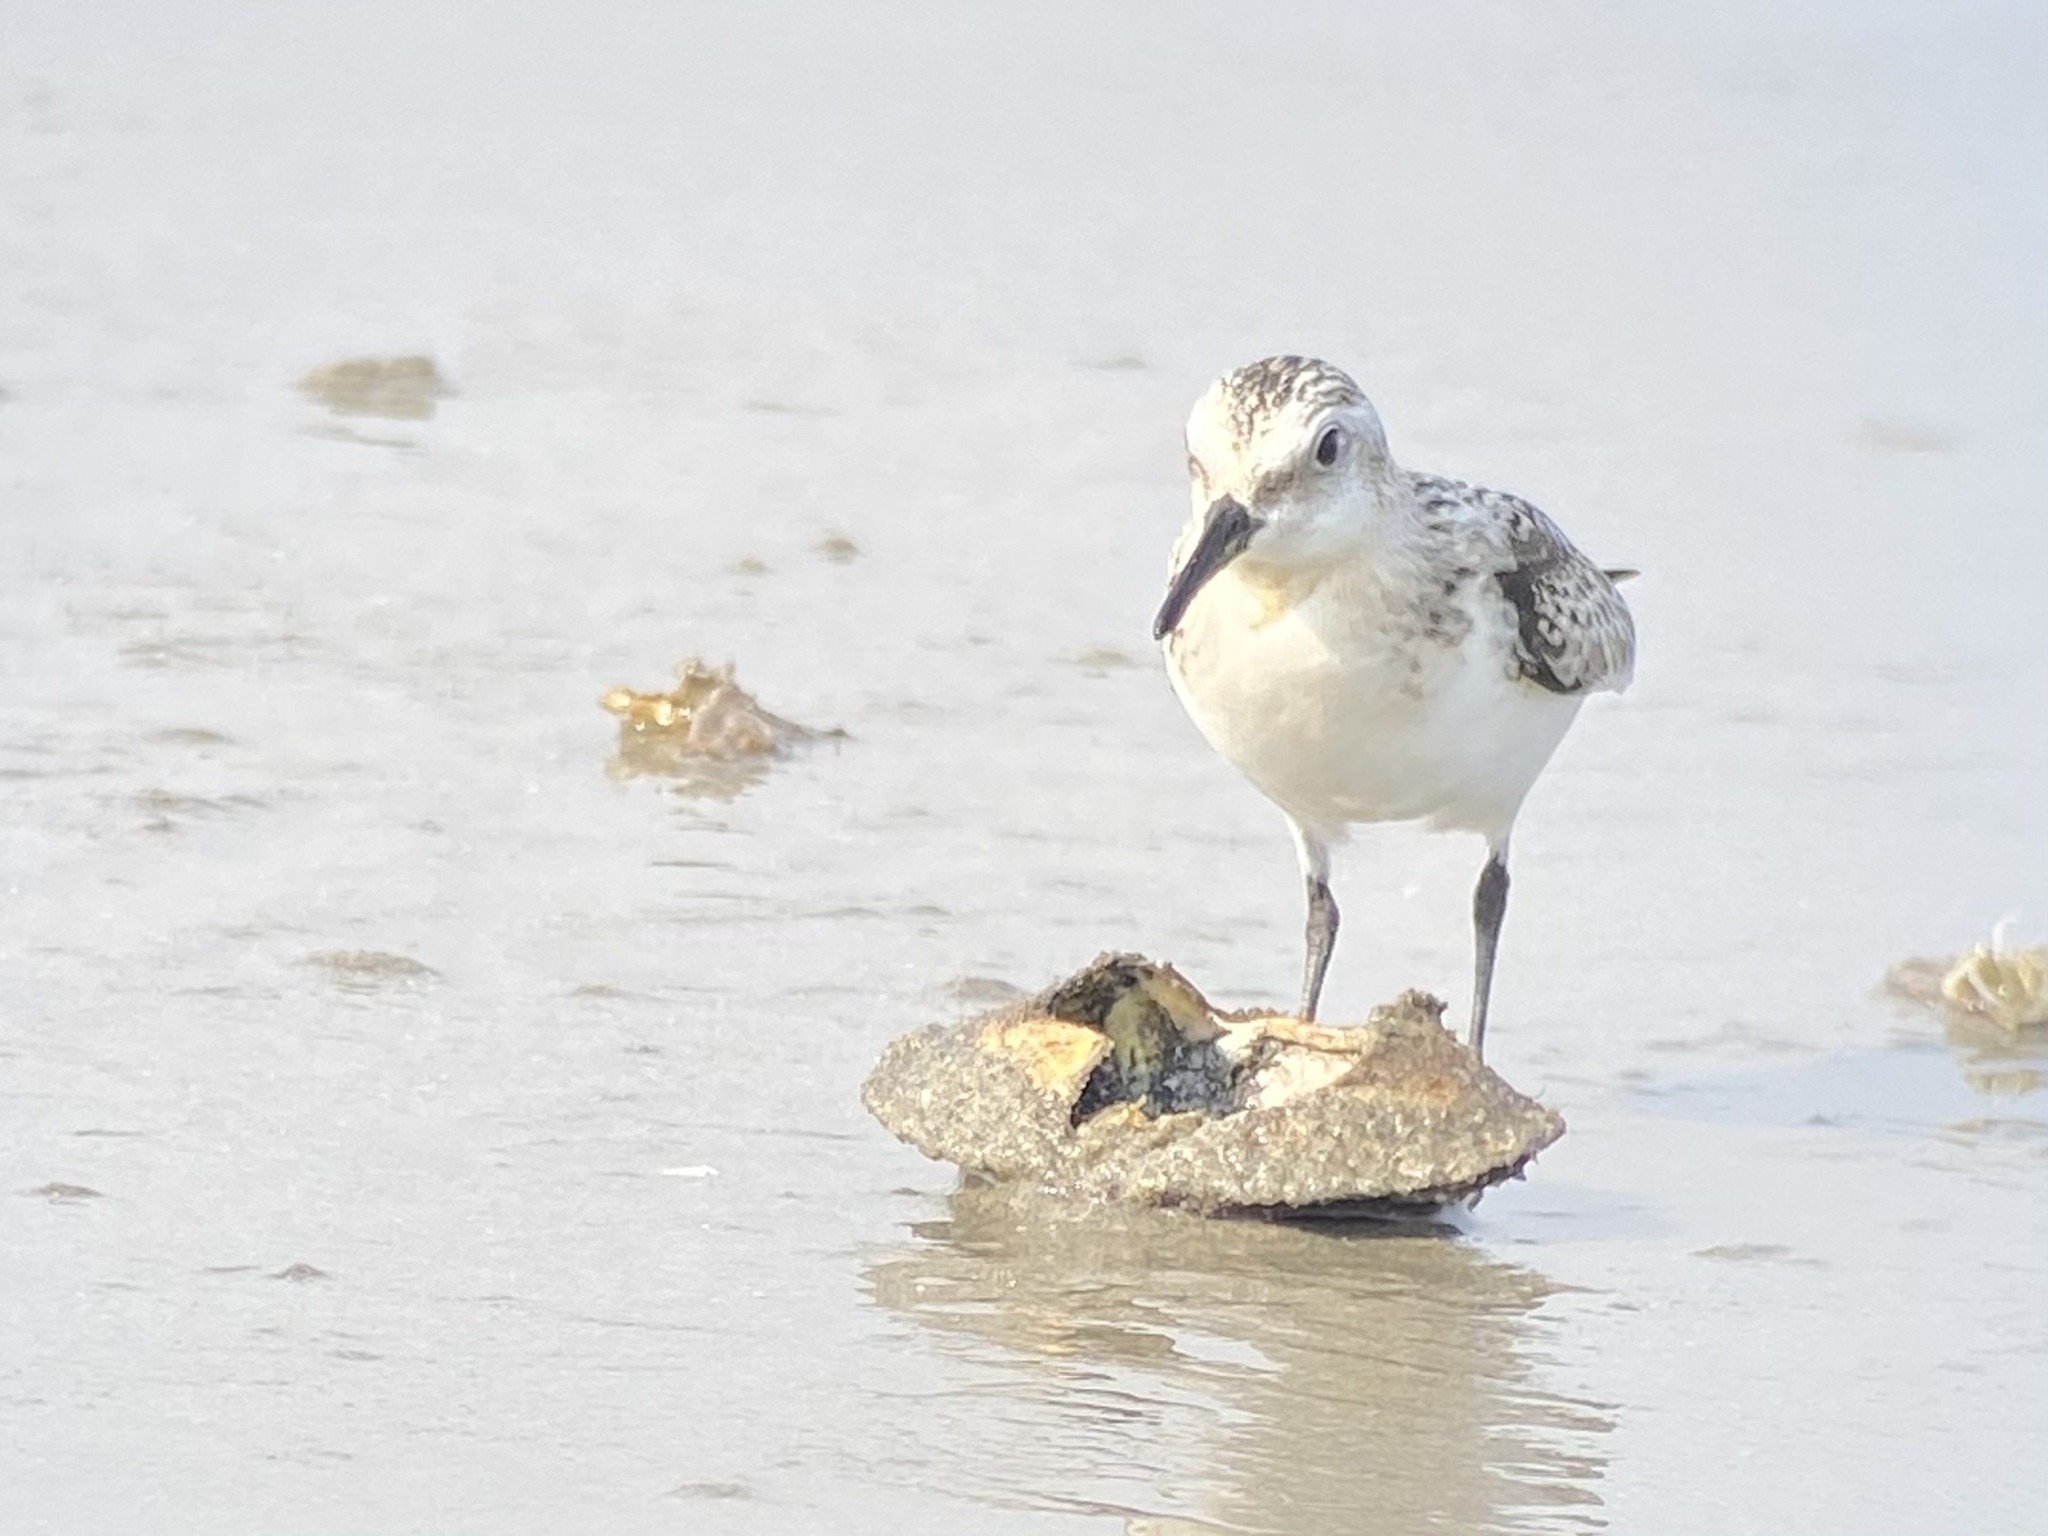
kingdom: Animalia
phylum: Chordata
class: Aves
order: Charadriiformes
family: Scolopacidae
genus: Calidris
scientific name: Calidris alba
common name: Sanderling
